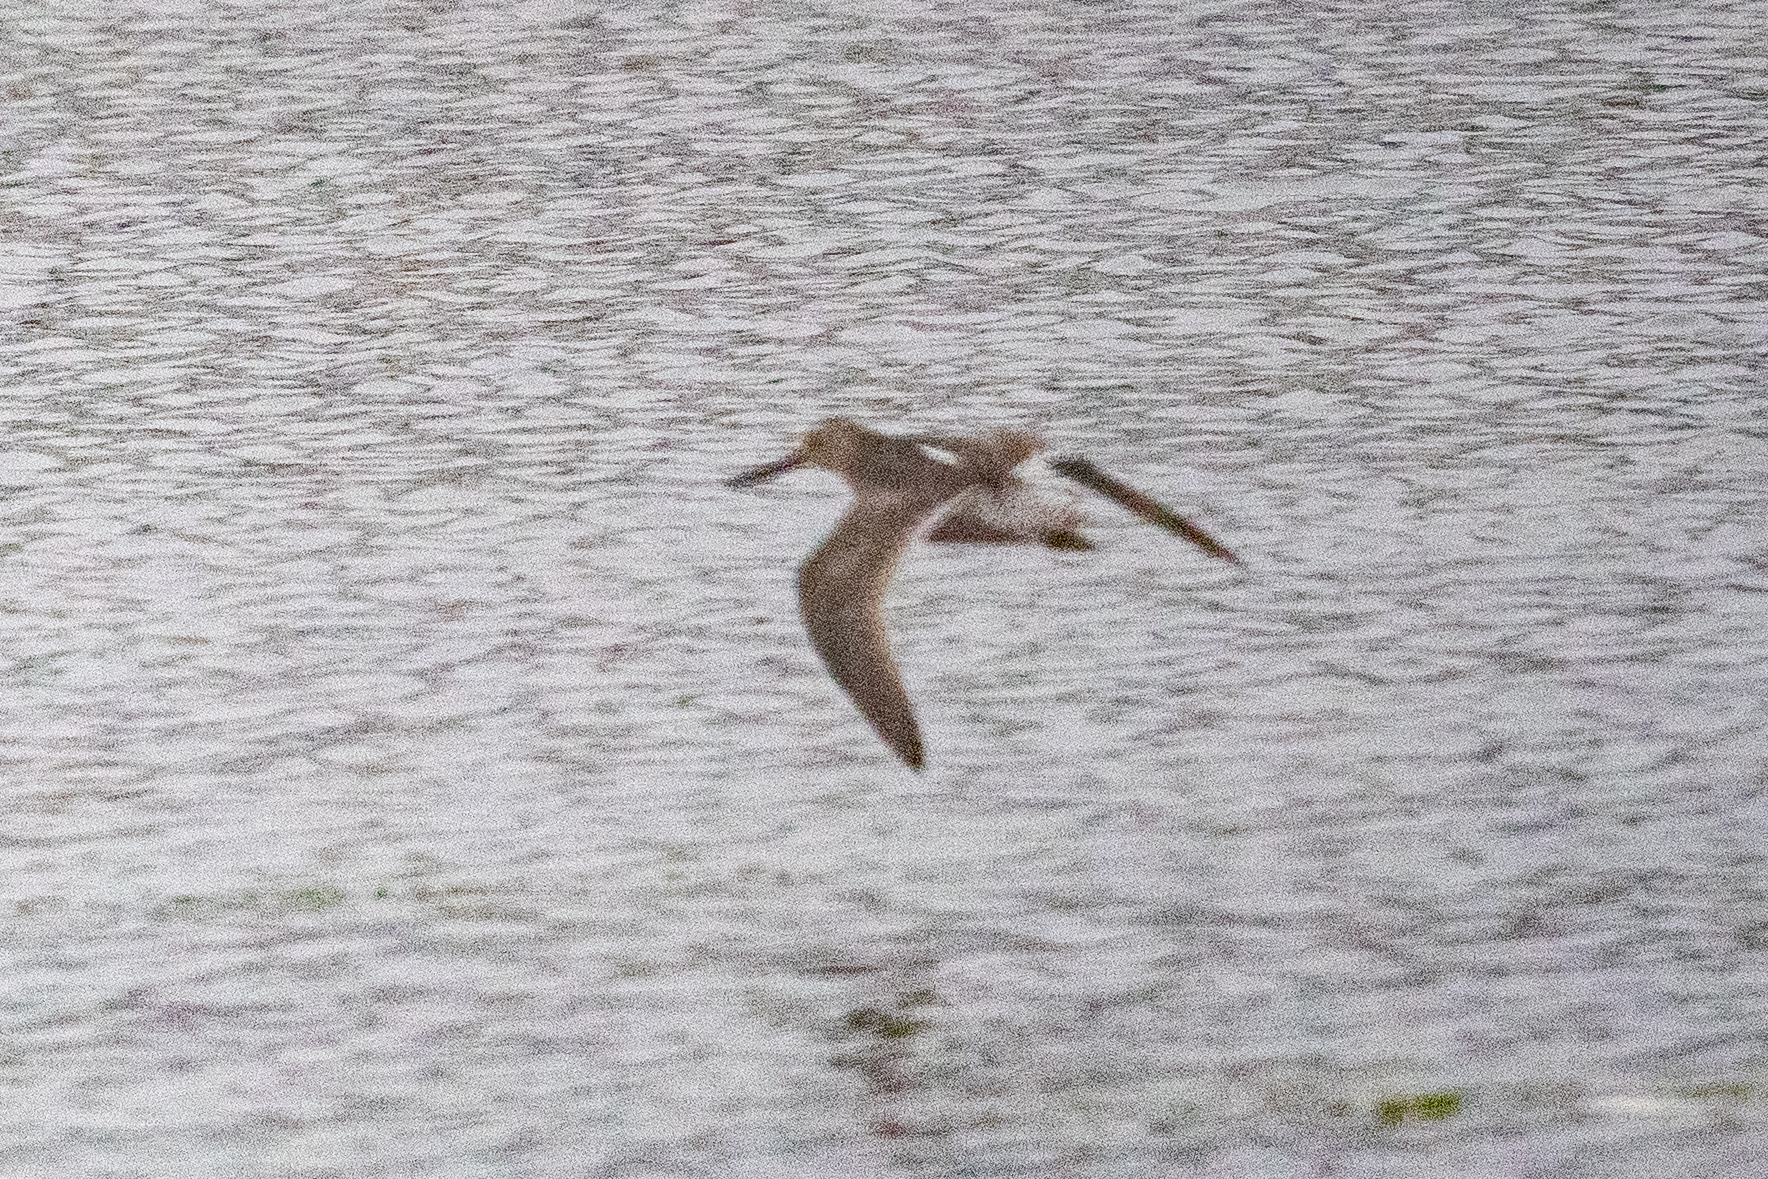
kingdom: Animalia
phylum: Chordata
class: Aves
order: Charadriiformes
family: Scolopacidae
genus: Limnodromus
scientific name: Limnodromus
